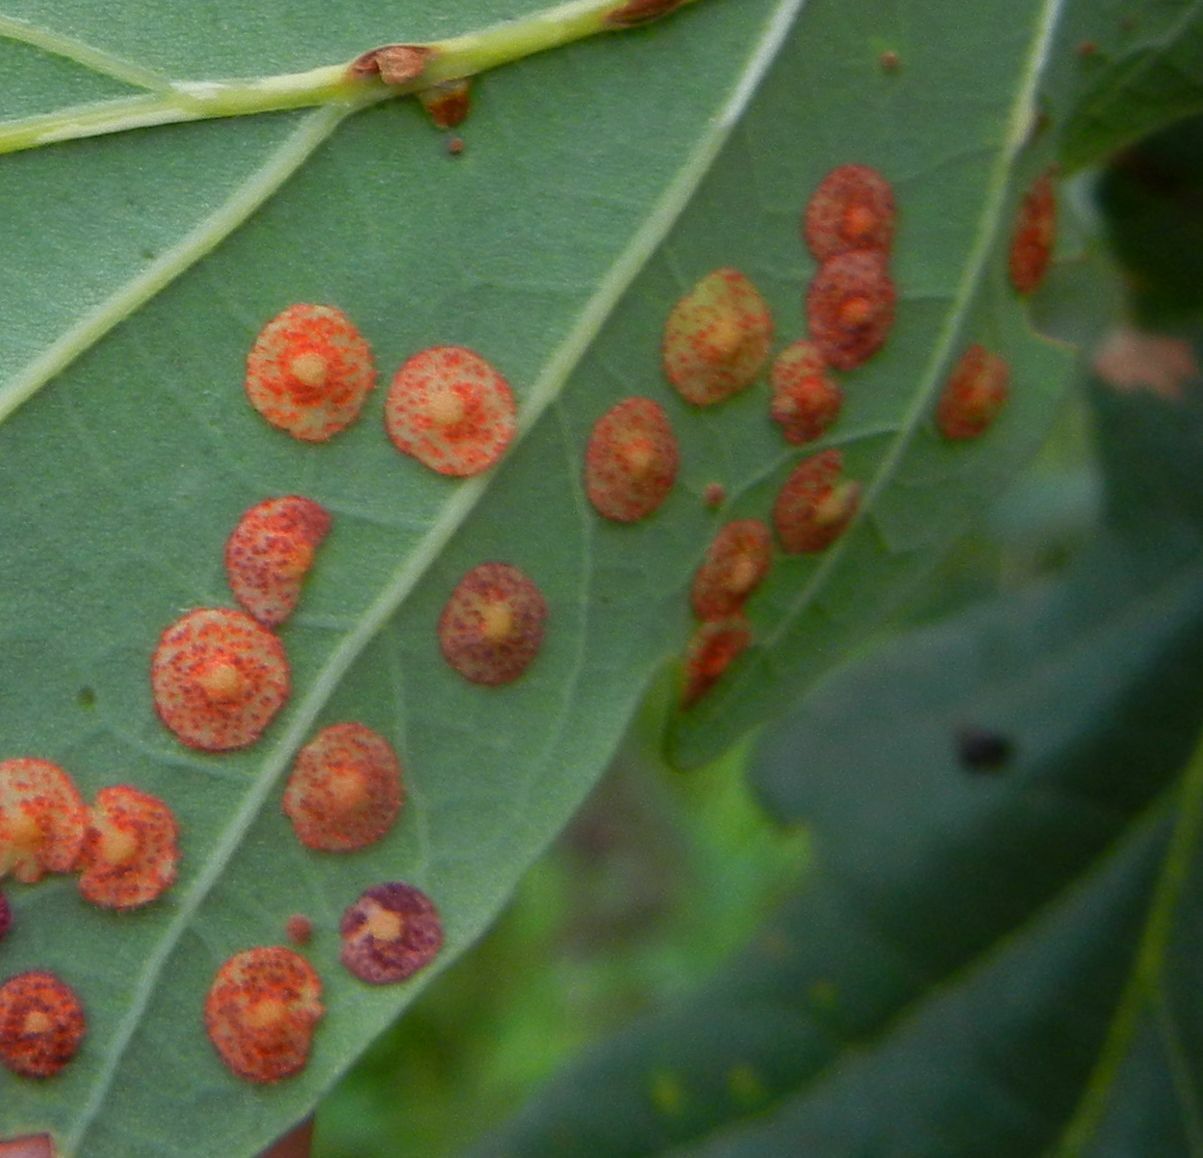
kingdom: Animalia
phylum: Arthropoda
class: Insecta
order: Hymenoptera
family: Cynipidae
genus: Neuroterus
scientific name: Neuroterus quercusbaccarum
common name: Common spangle gall
